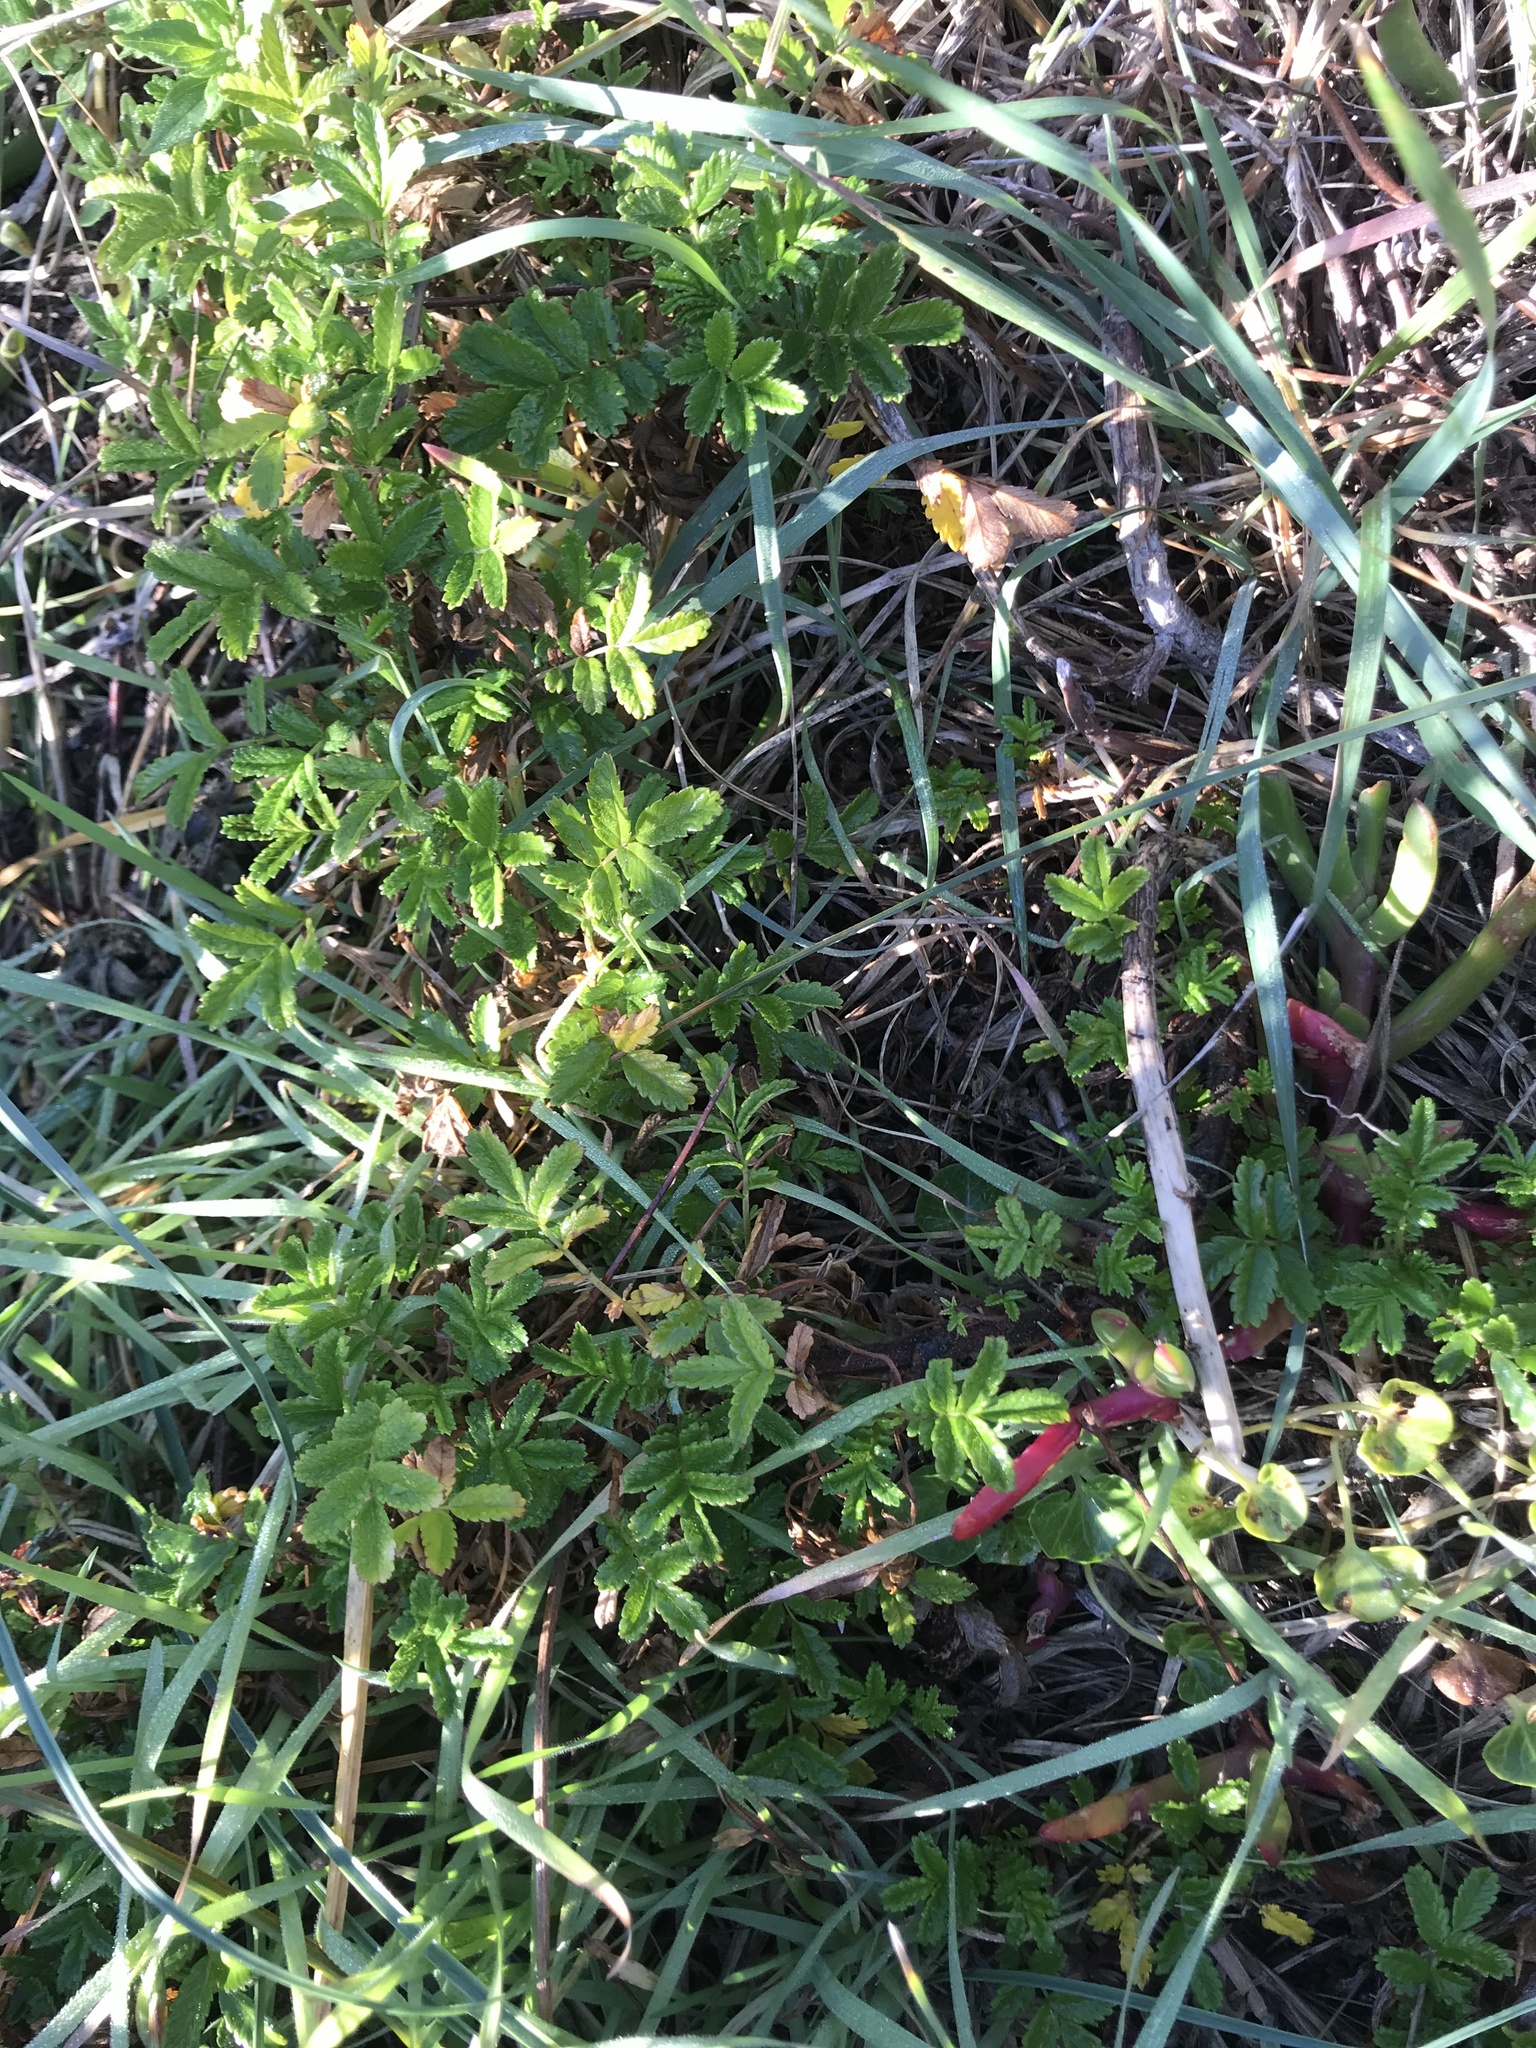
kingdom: Plantae
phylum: Tracheophyta
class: Magnoliopsida
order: Rosales
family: Rosaceae
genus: Acaena
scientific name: Acaena novae-zelandiae
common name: Pirri-pirri-bur
